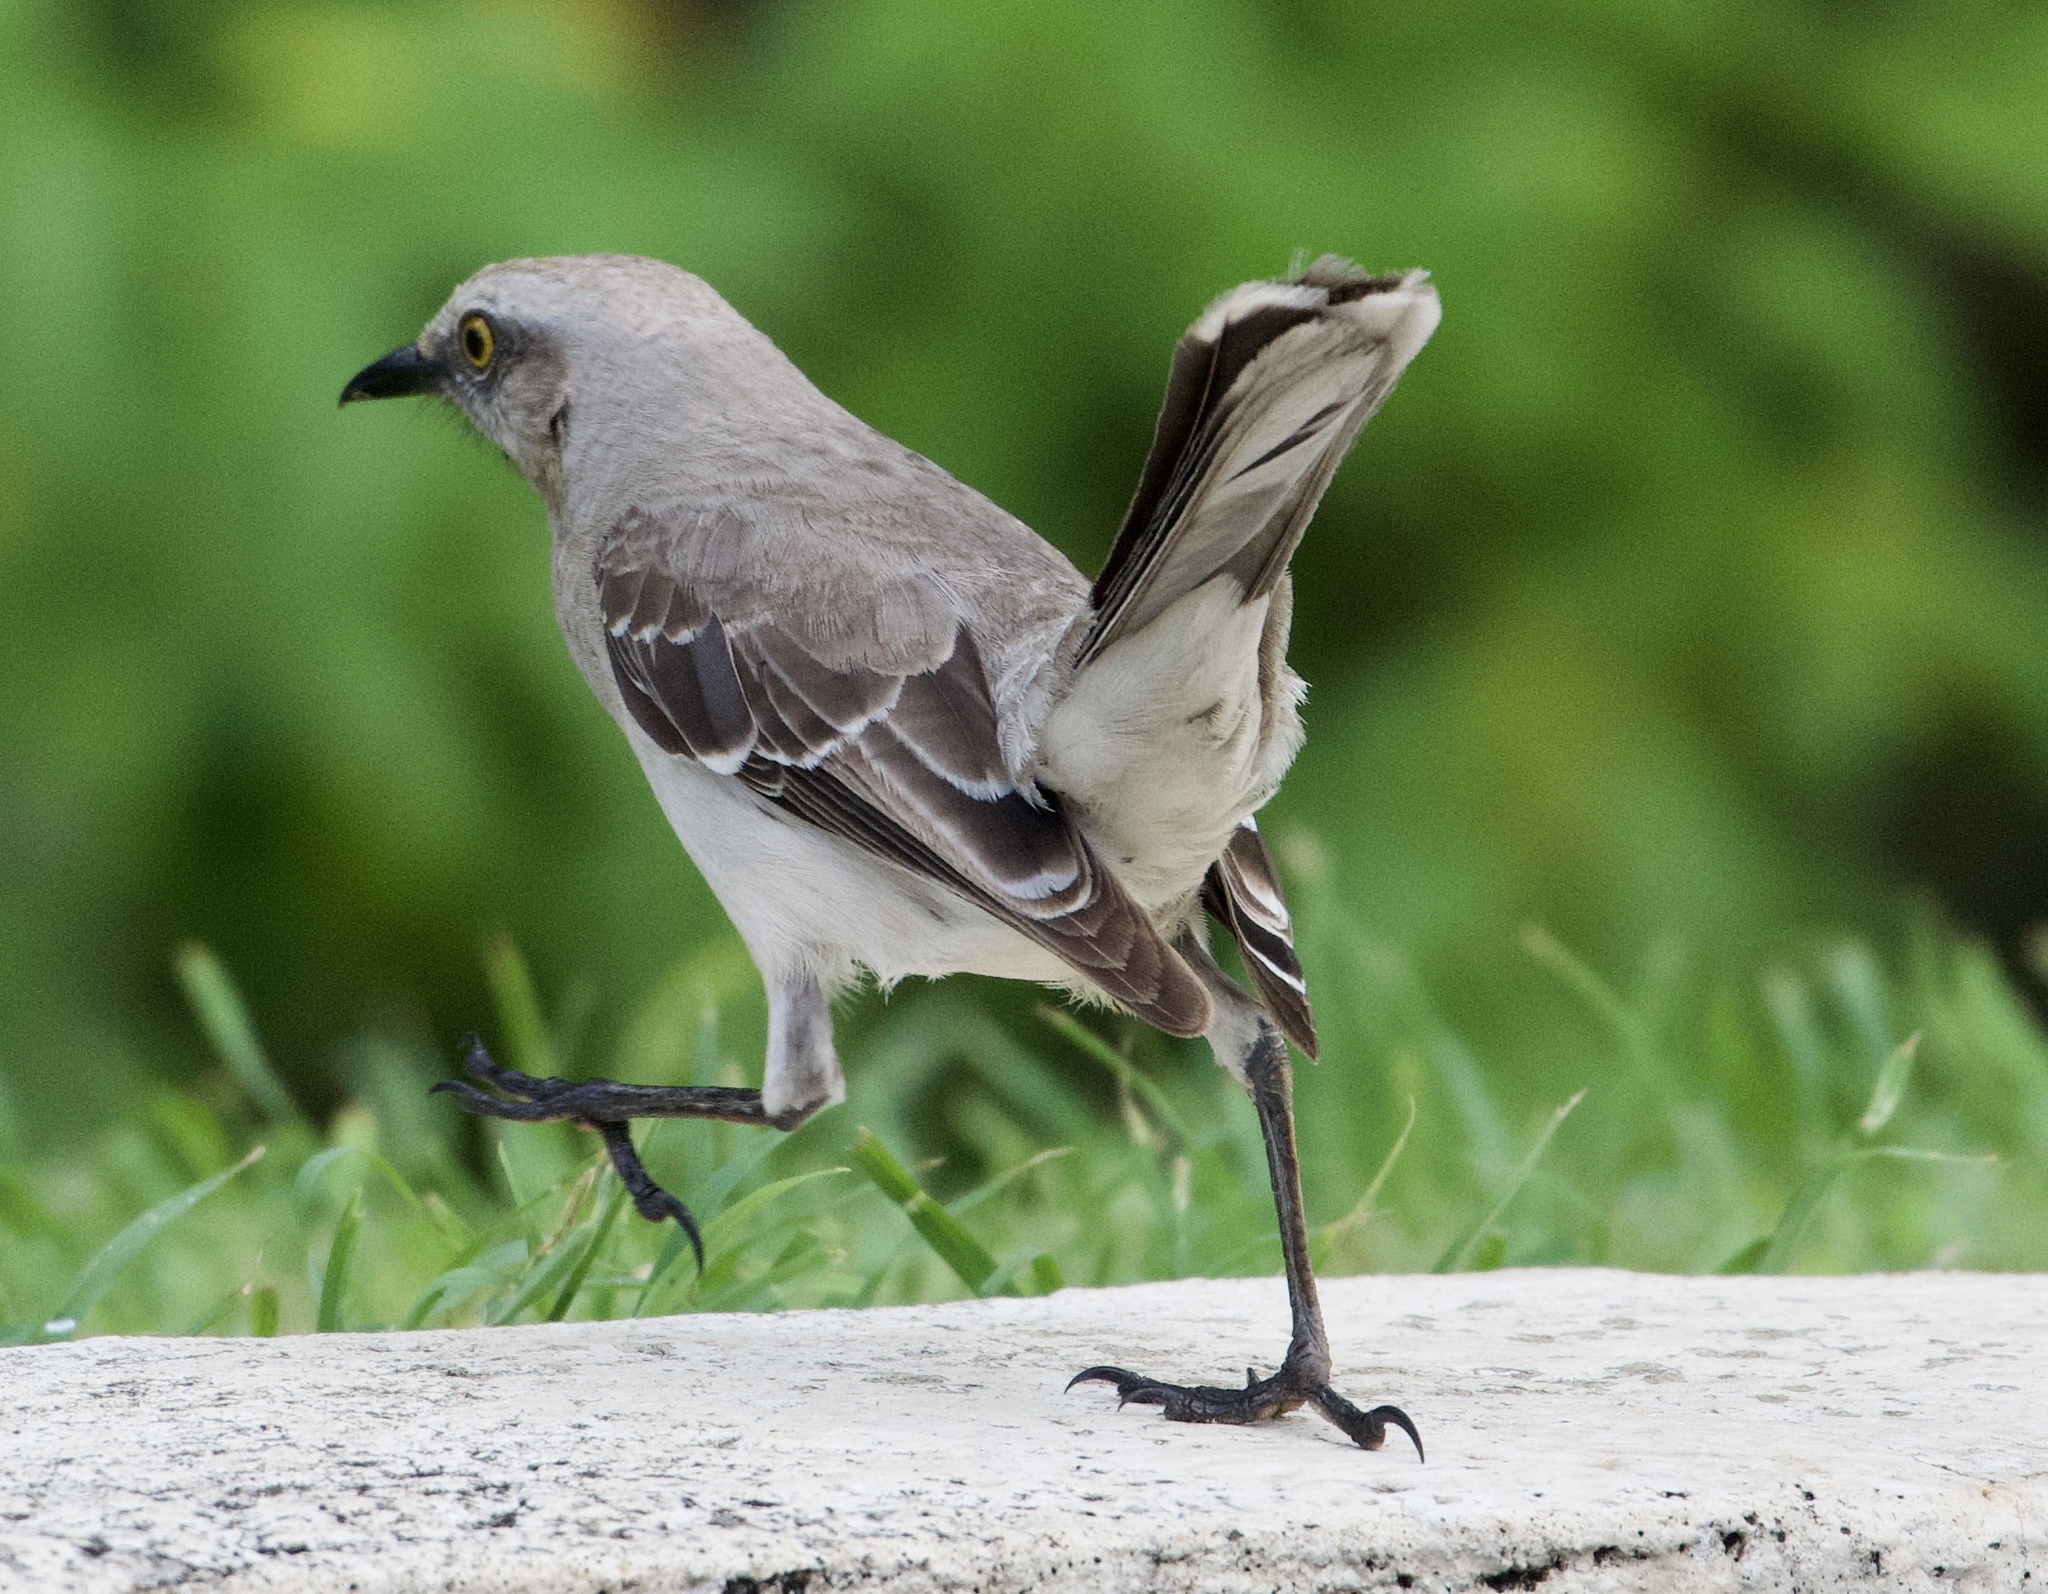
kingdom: Animalia
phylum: Chordata
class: Aves
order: Passeriformes
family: Mimidae
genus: Mimus
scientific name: Mimus gilvus
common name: Tropical mockingbird
